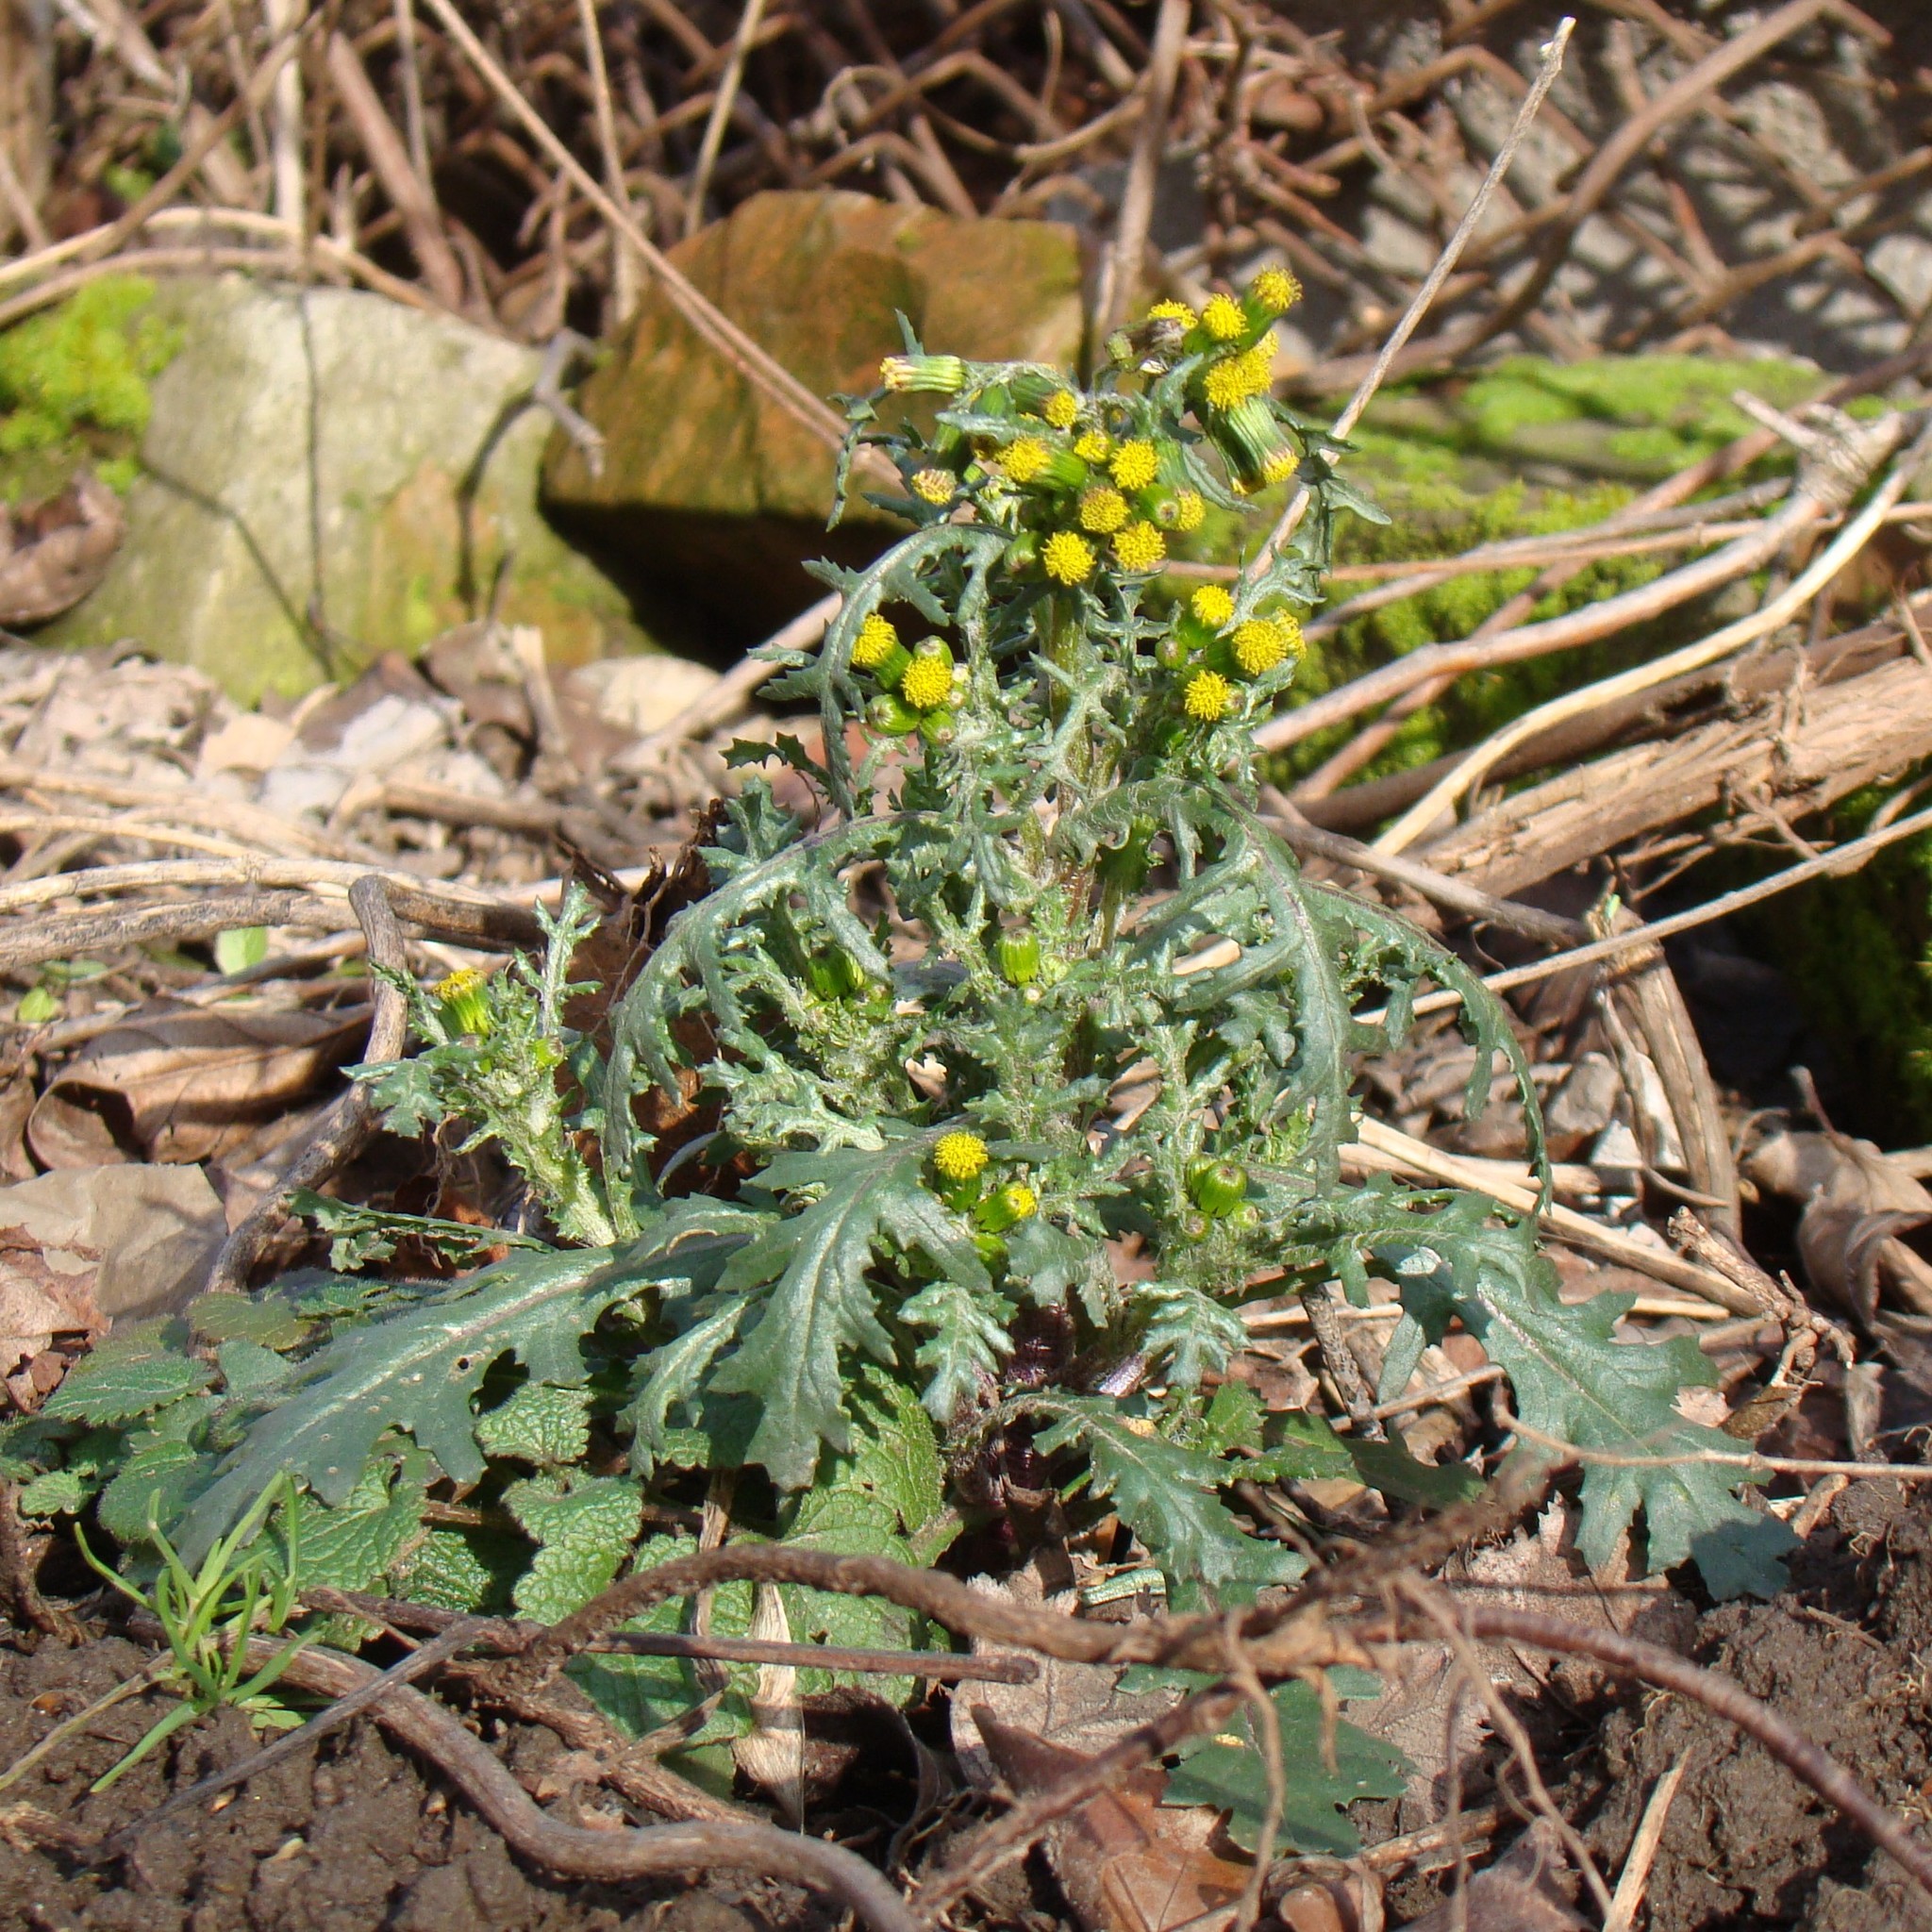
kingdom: Plantae
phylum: Tracheophyta
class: Magnoliopsida
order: Asterales
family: Asteraceae
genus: Senecio
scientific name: Senecio vulgaris
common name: Old-man-in-the-spring
